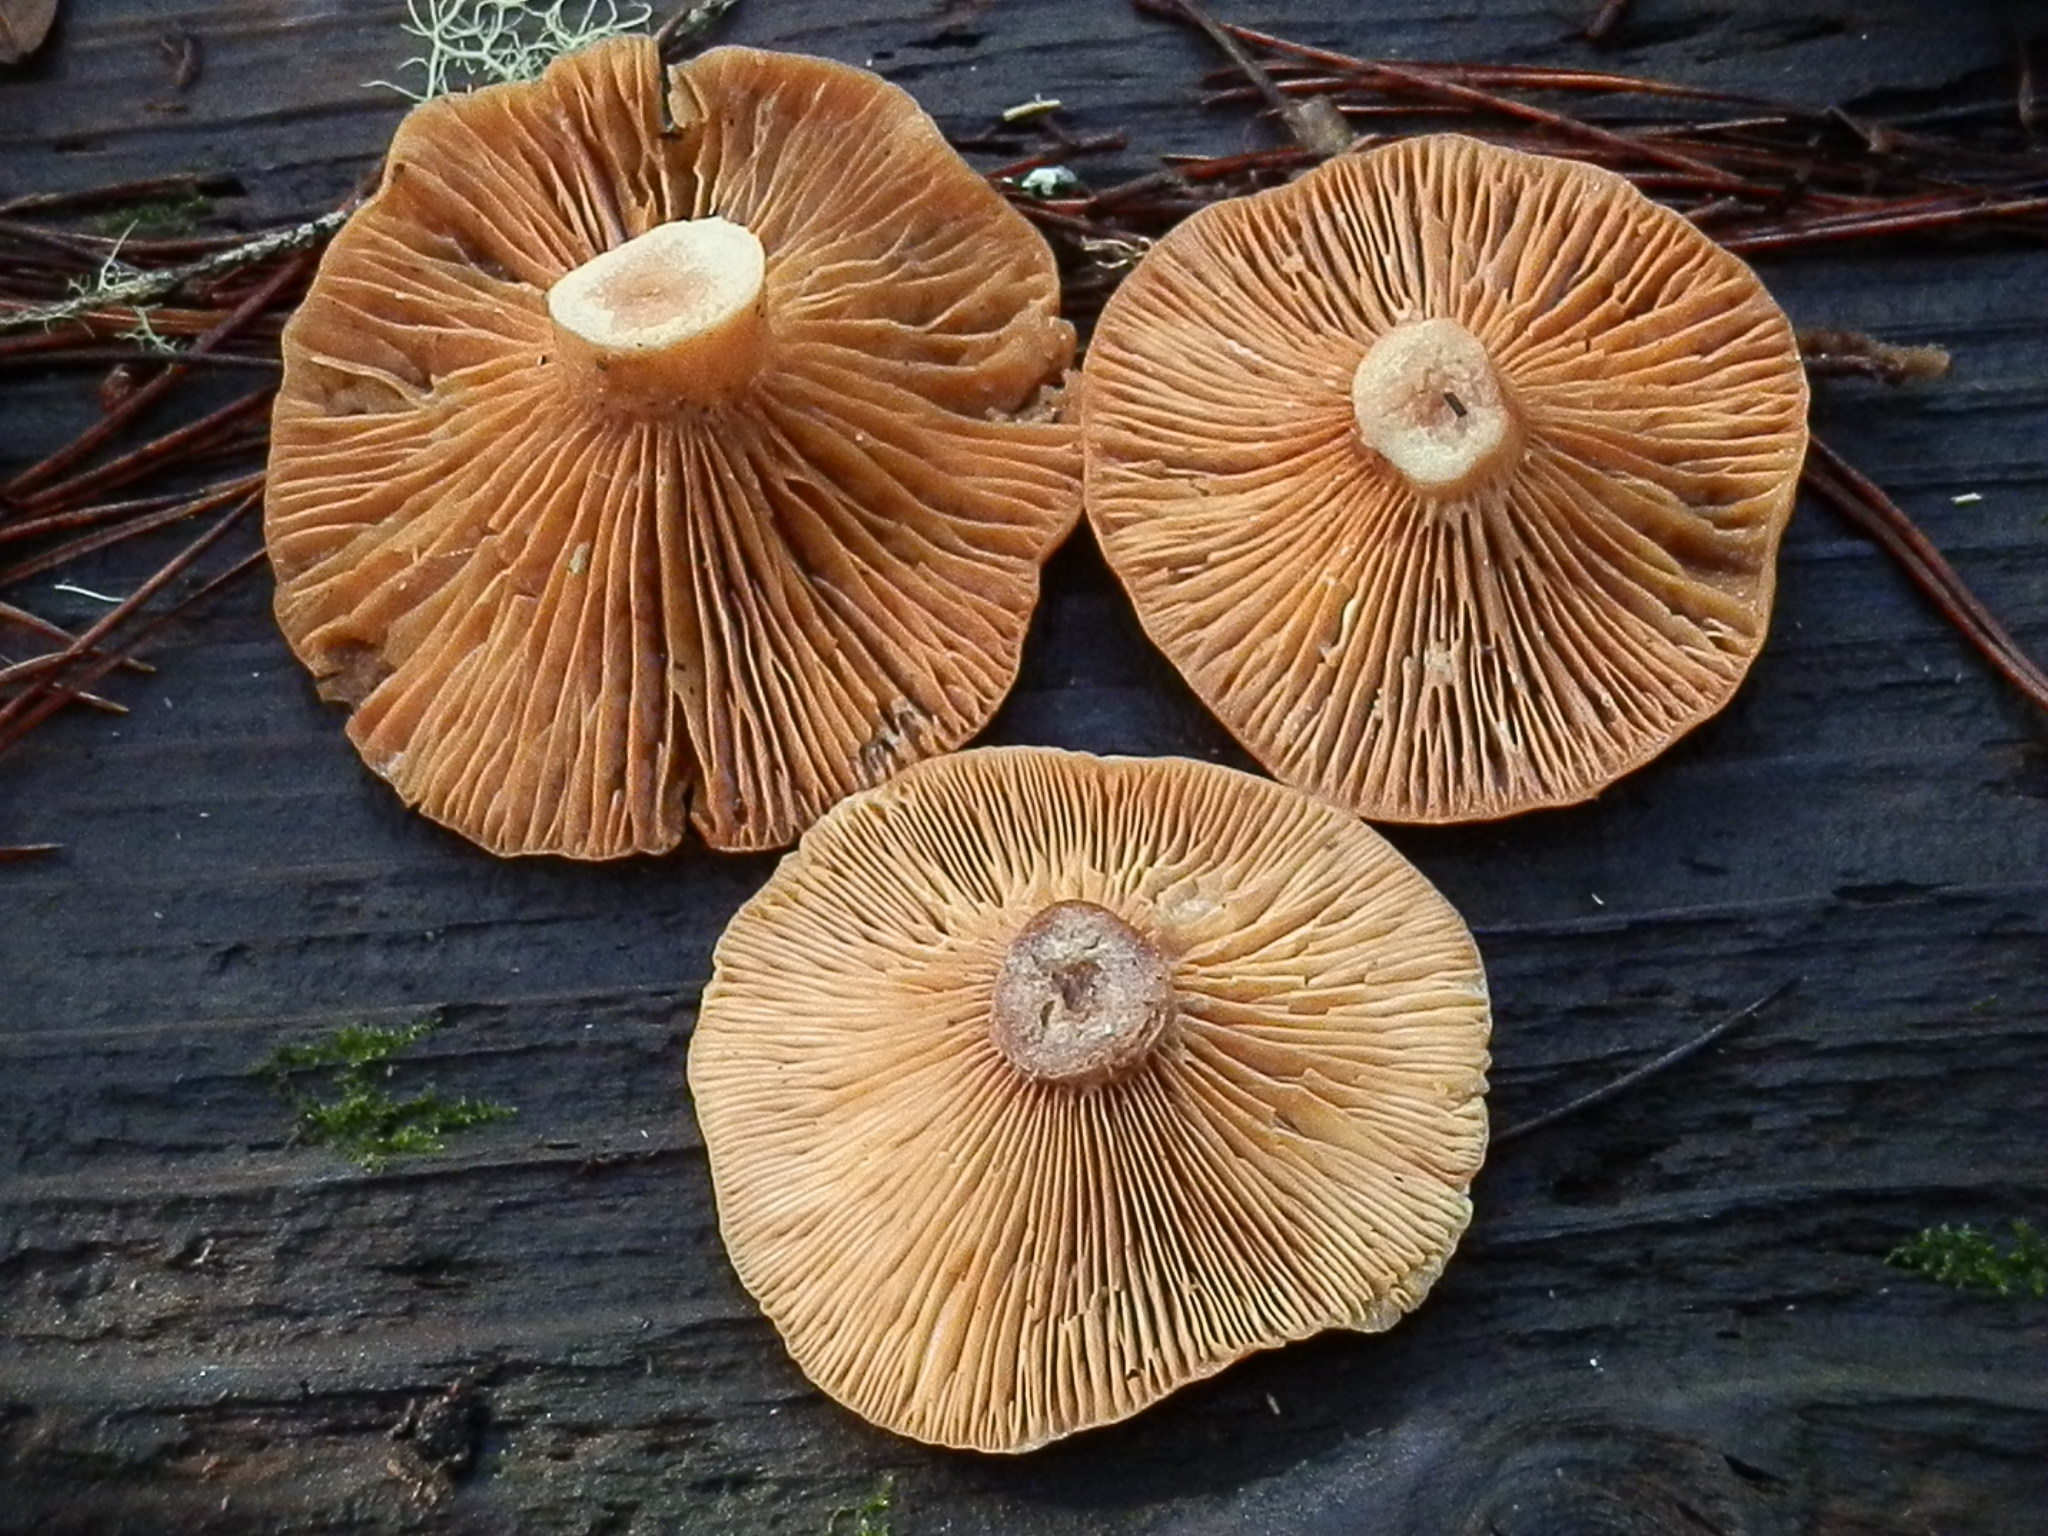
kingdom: Fungi
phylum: Basidiomycota
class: Agaricomycetes
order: Russulales
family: Russulaceae
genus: Lactarius
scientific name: Lactarius rufus
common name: Rufous milk-cap
